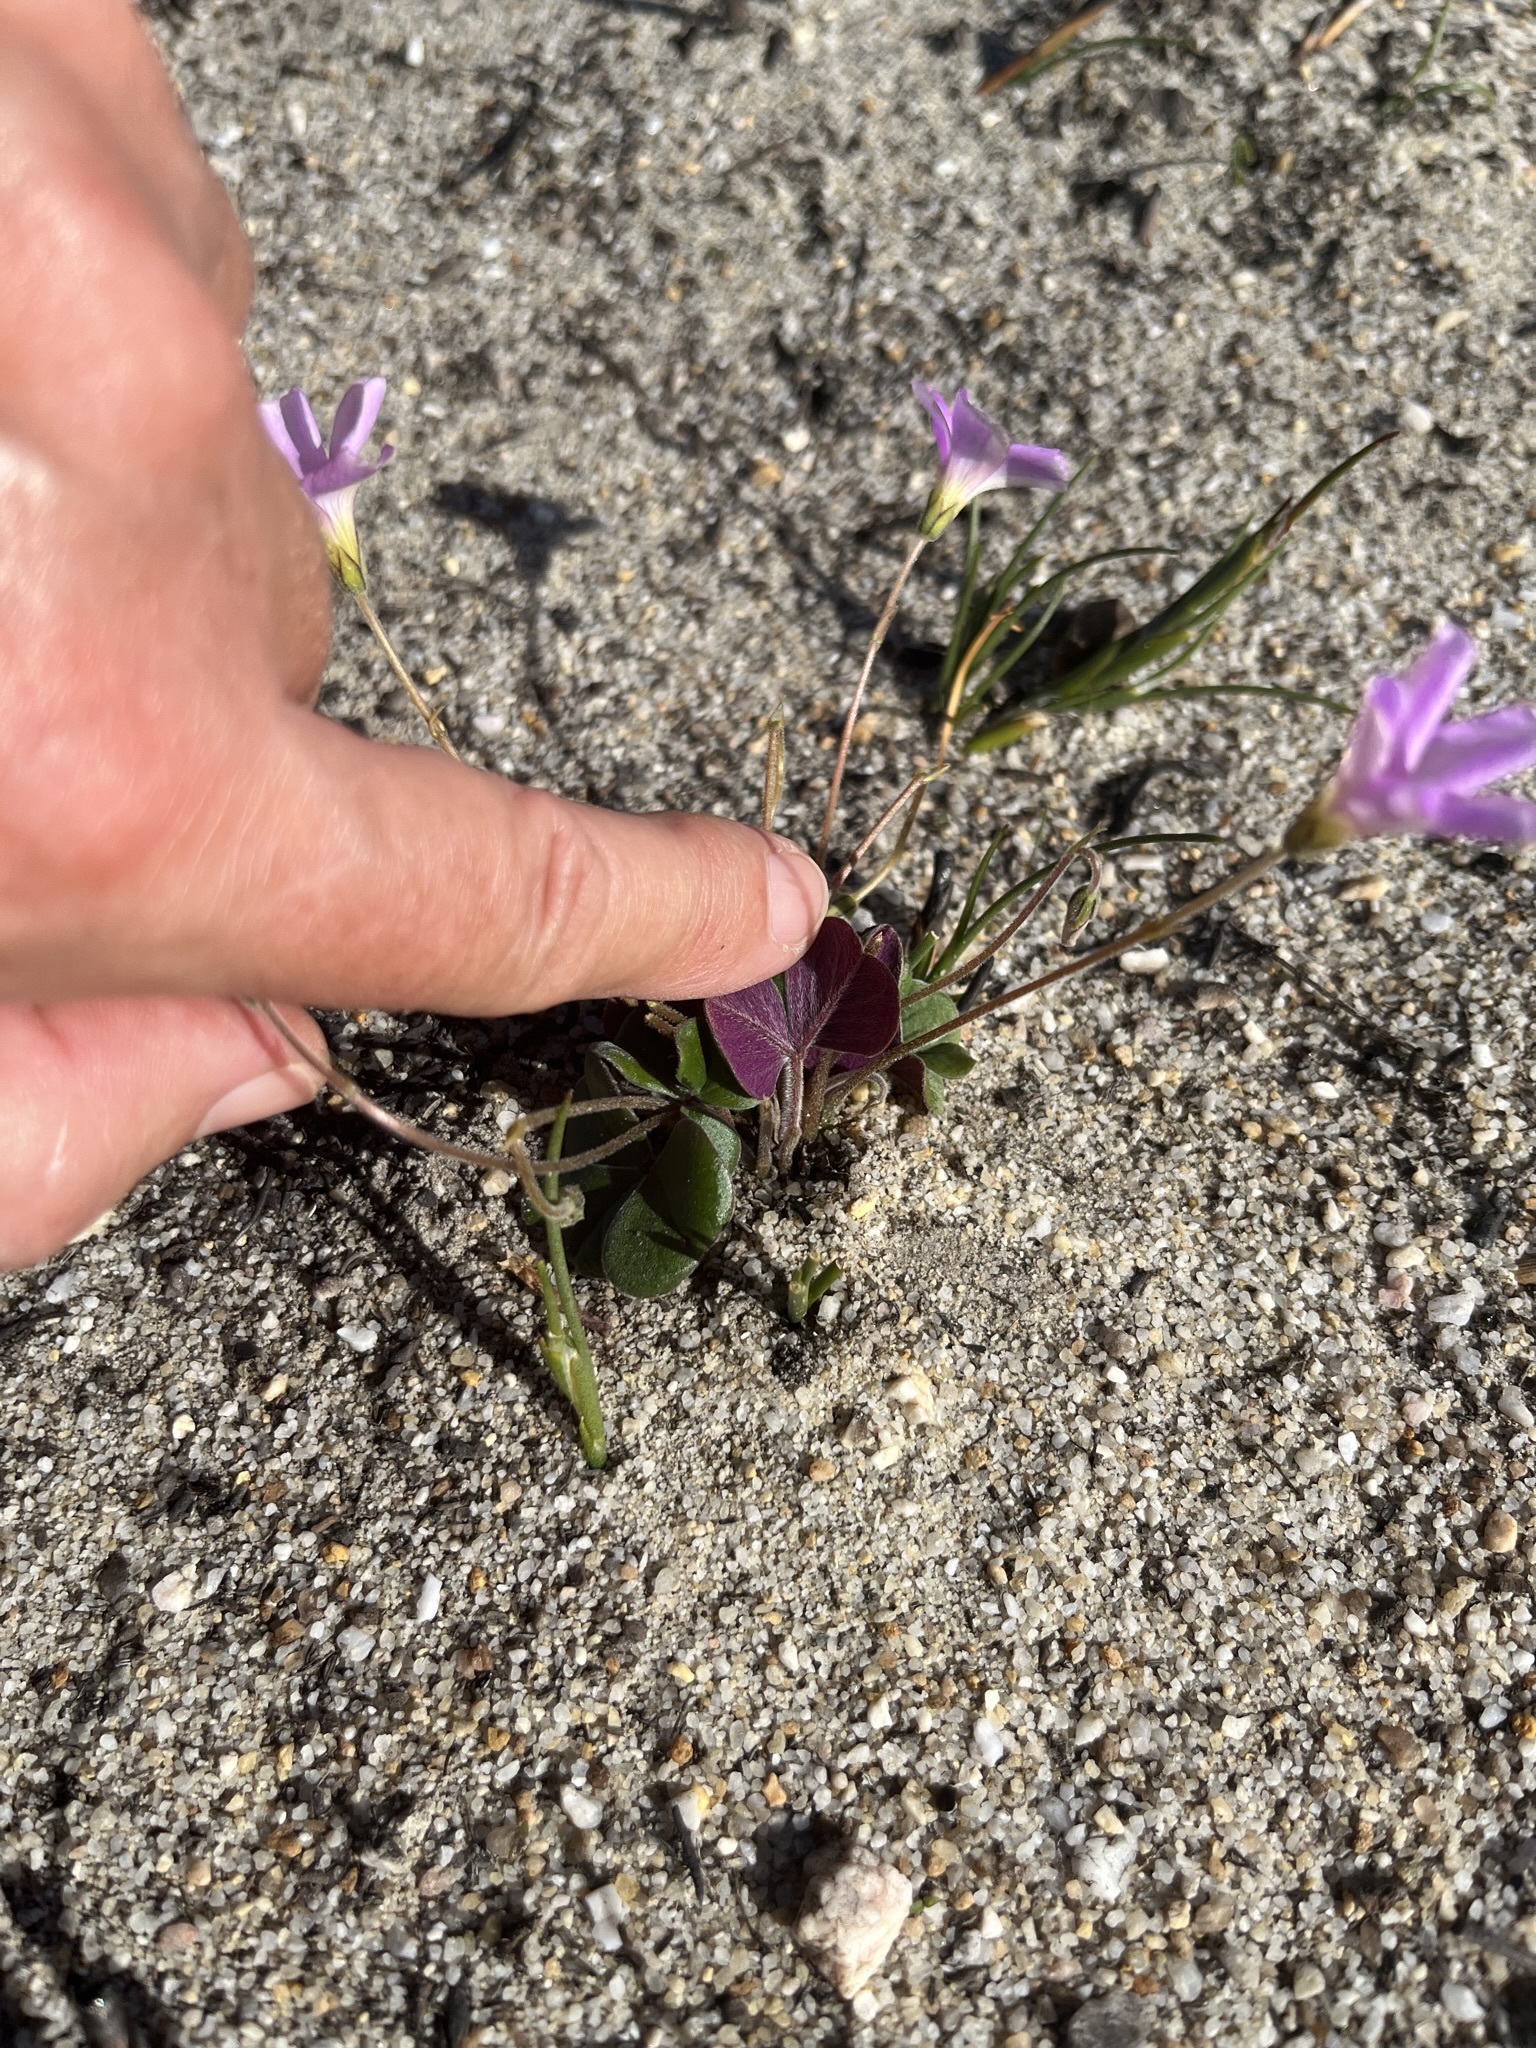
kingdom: Plantae
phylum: Tracheophyta
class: Magnoliopsida
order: Oxalidales
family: Oxalidaceae
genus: Oxalis
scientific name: Oxalis truncatula
